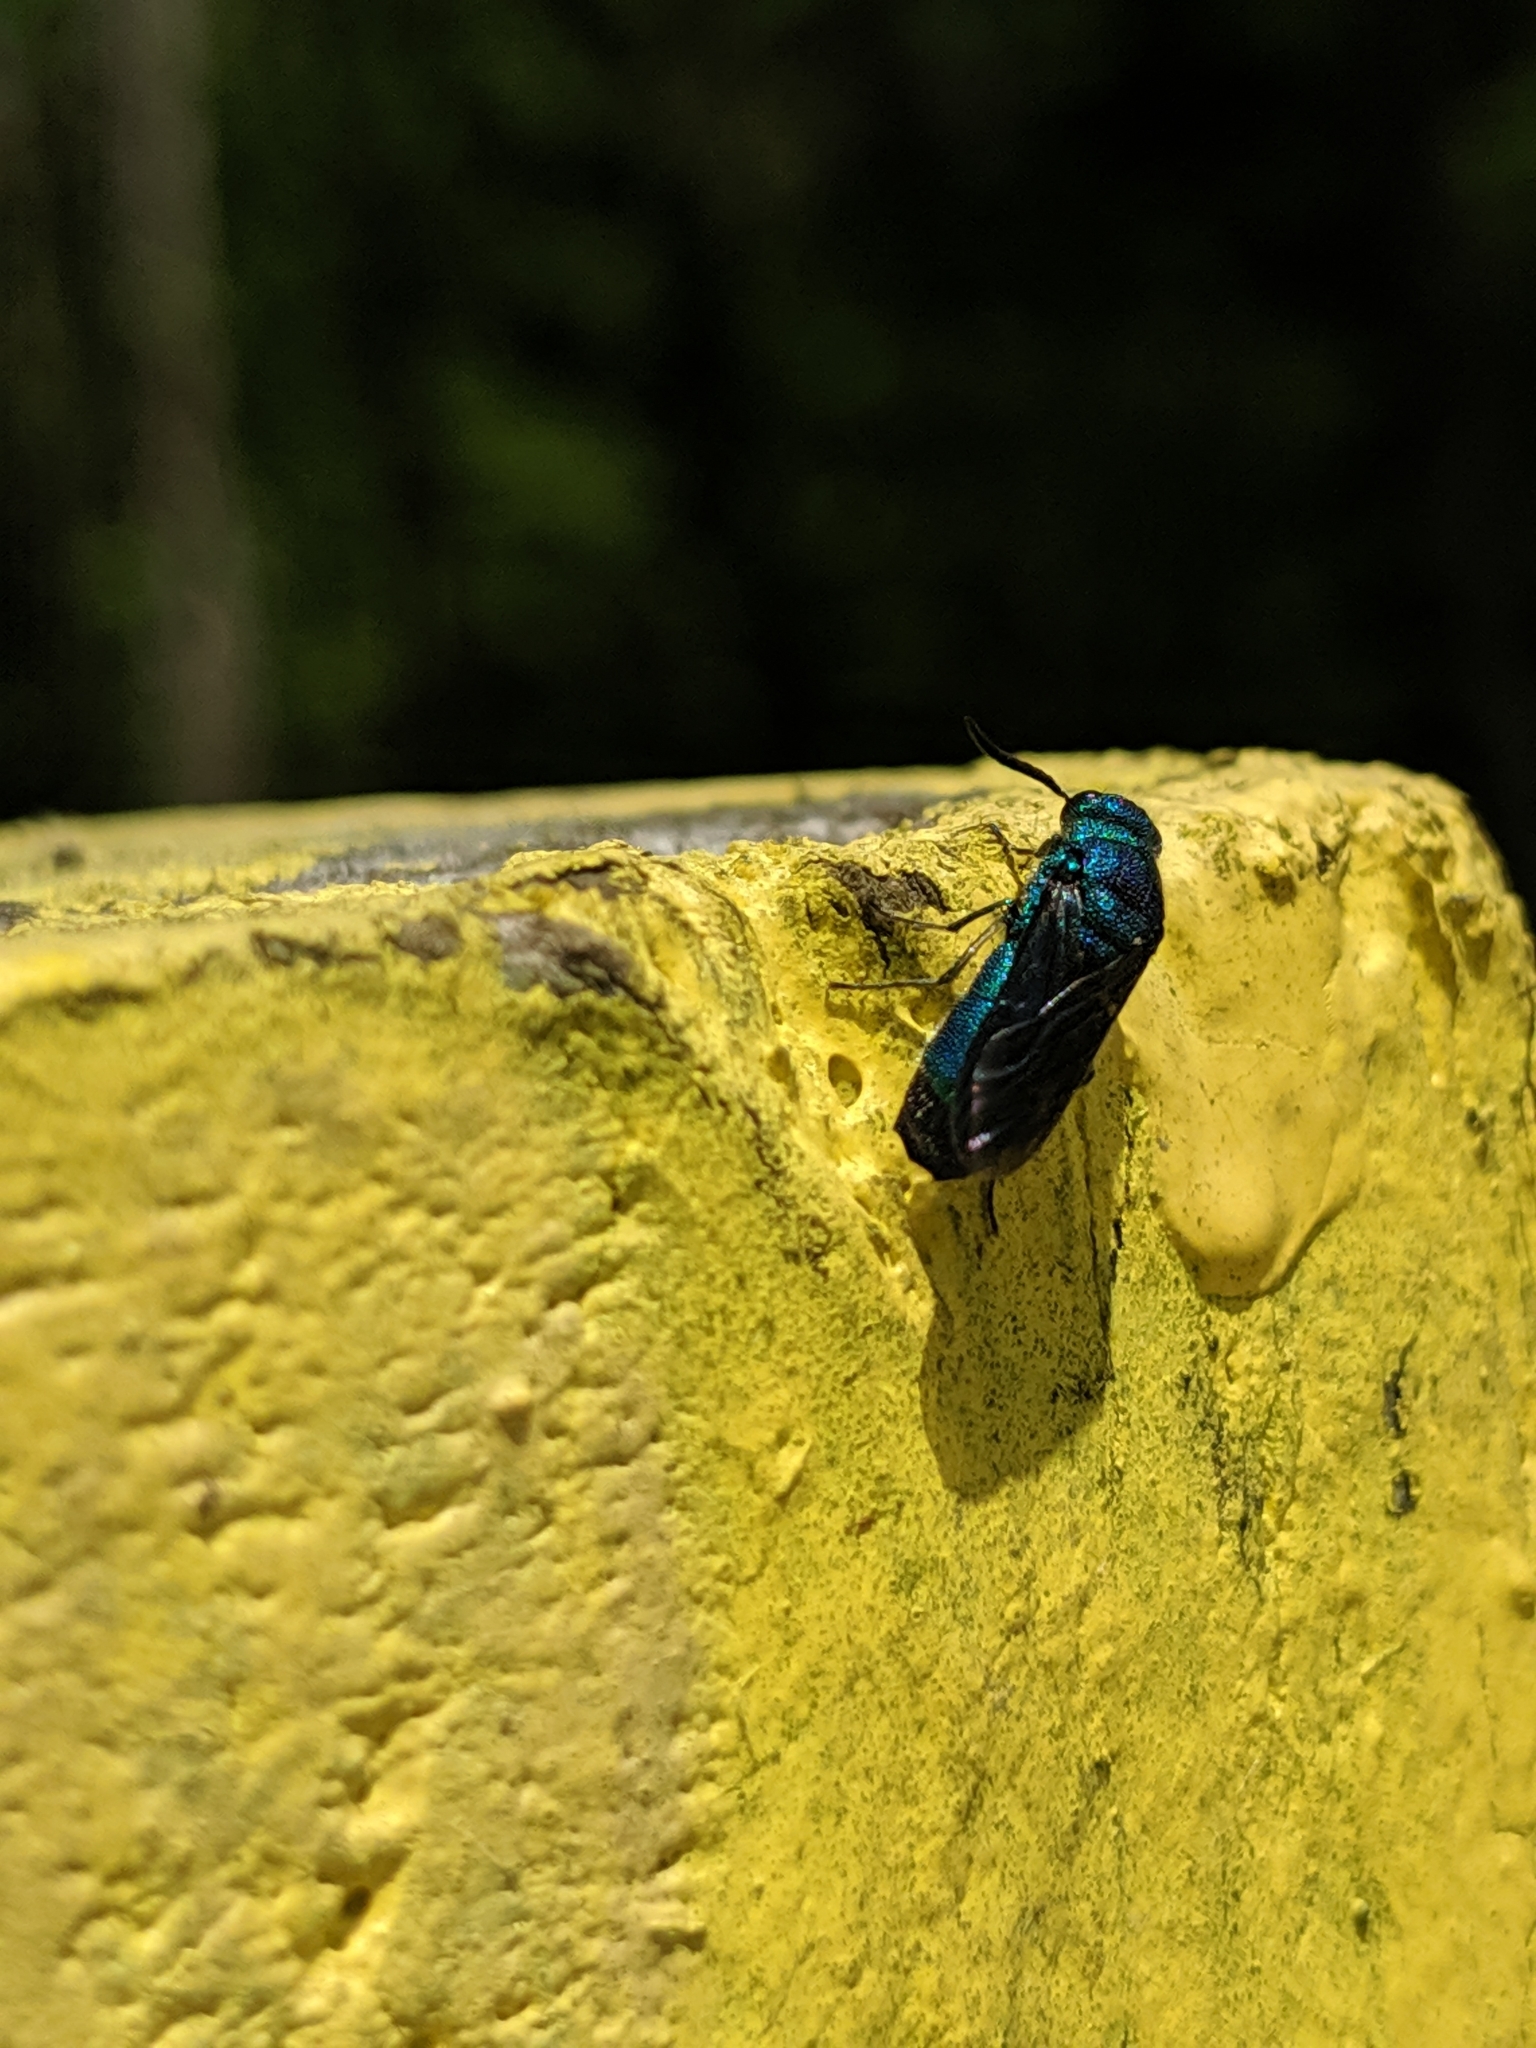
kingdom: Animalia
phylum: Arthropoda
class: Insecta
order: Hymenoptera
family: Chrysididae
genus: Chrysis
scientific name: Chrysis angolensis
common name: Cuckoo wasp
